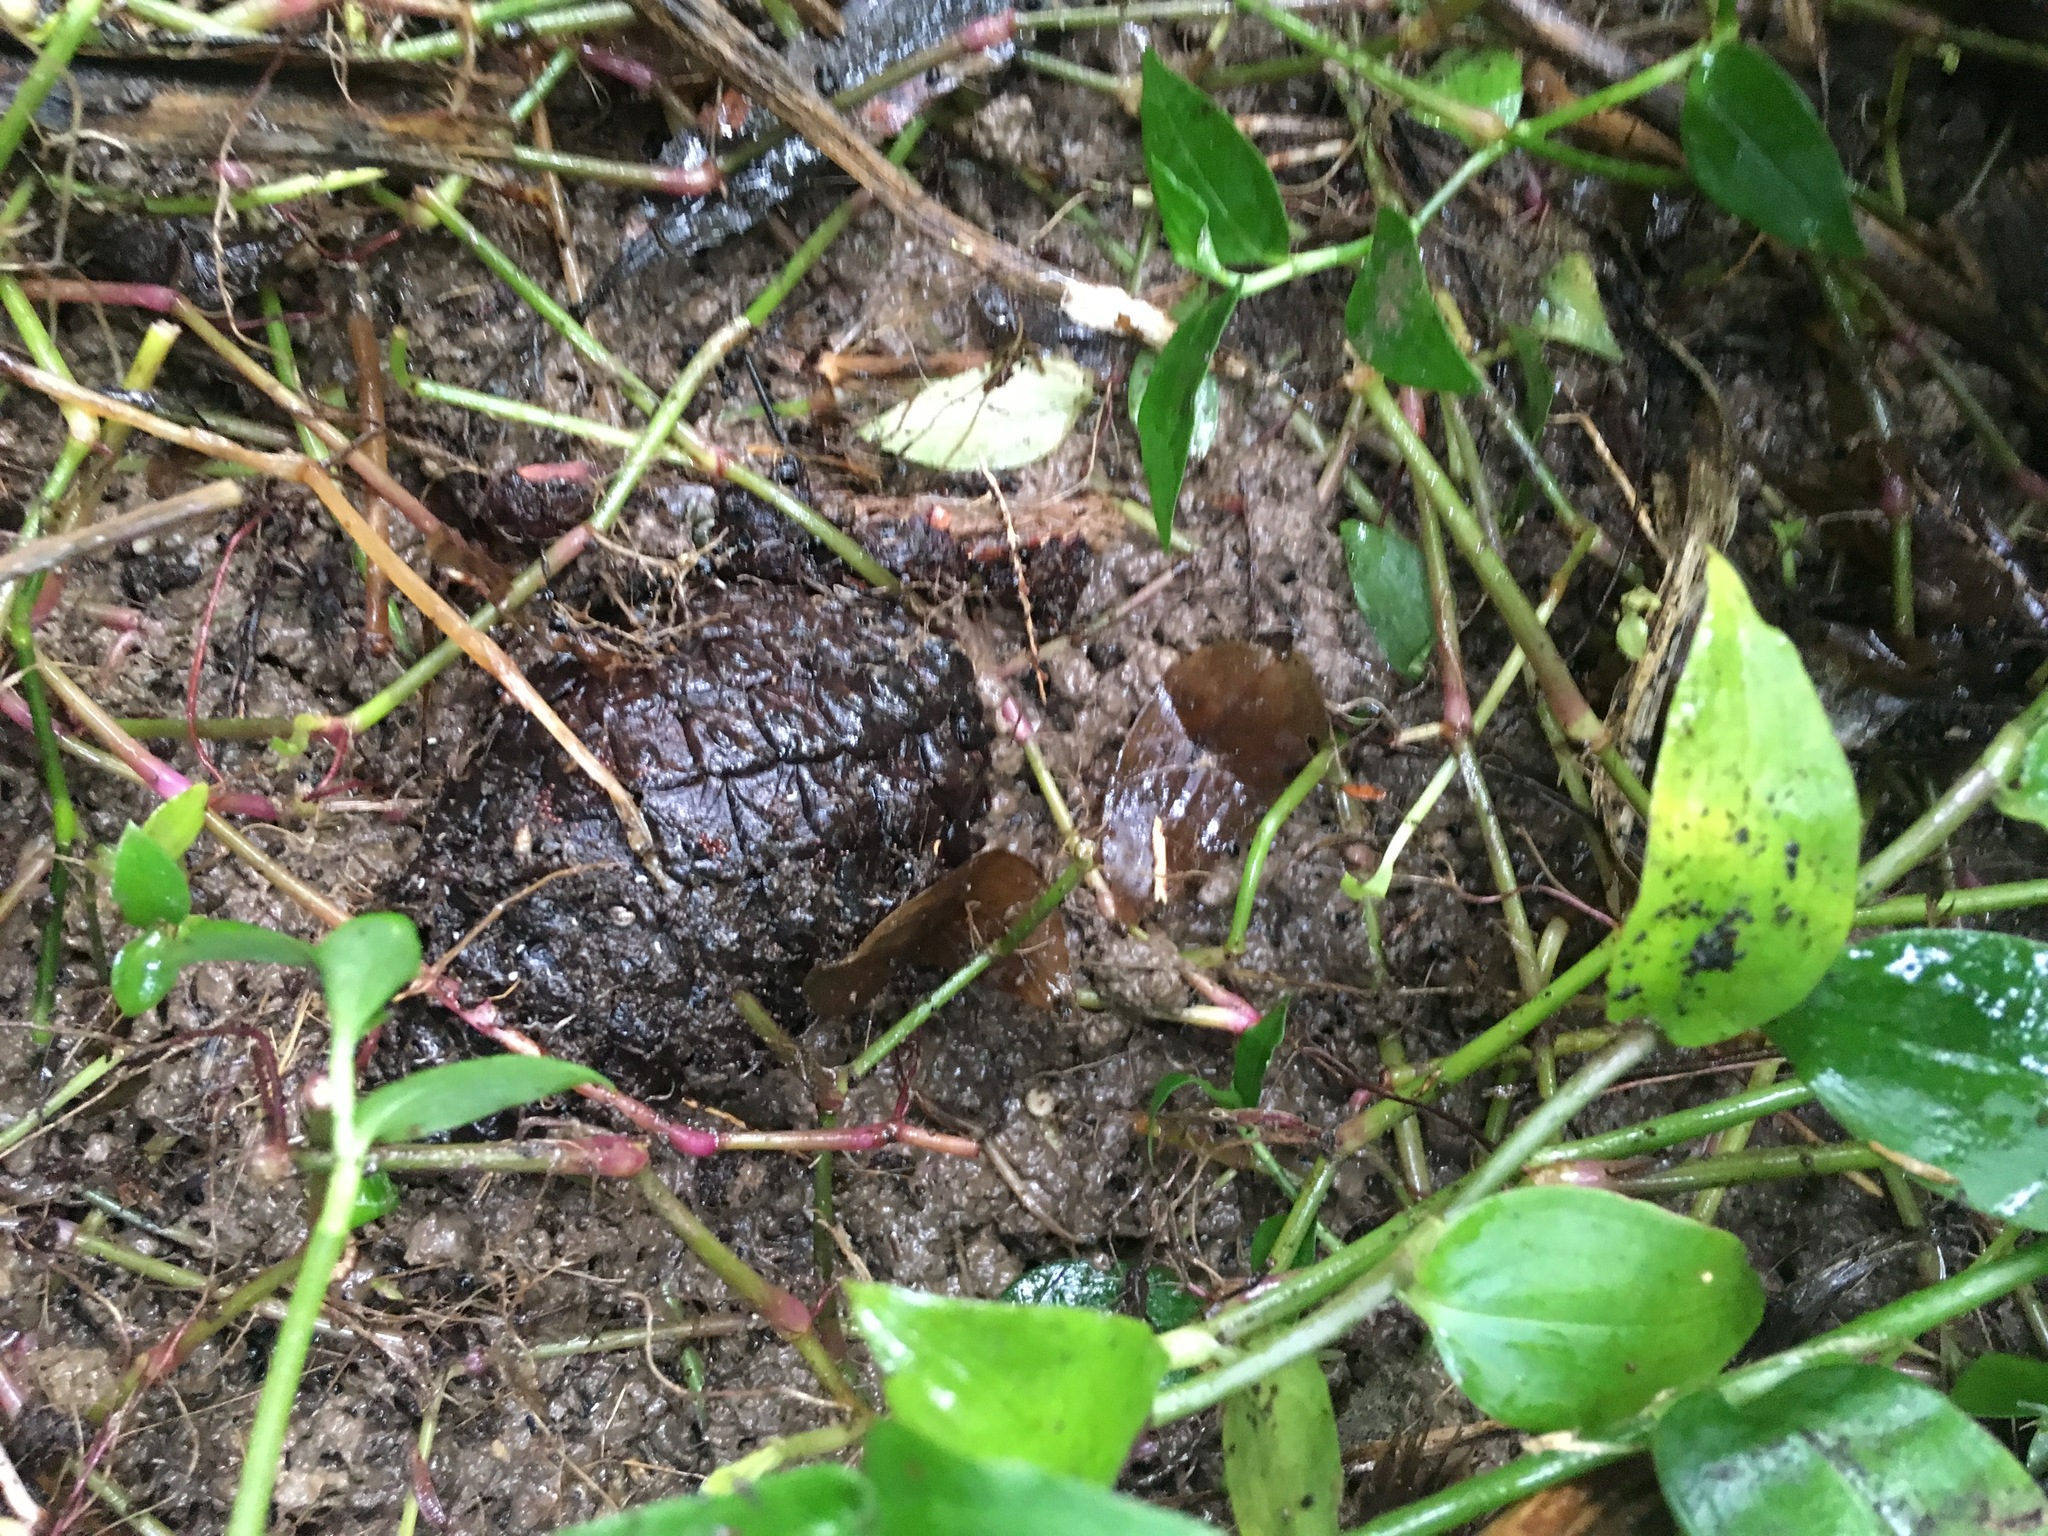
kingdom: Plantae
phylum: Tracheophyta
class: Pinopsida
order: Pinales
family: Pinaceae
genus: Pinus
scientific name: Pinus radiata
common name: Monterey pine
